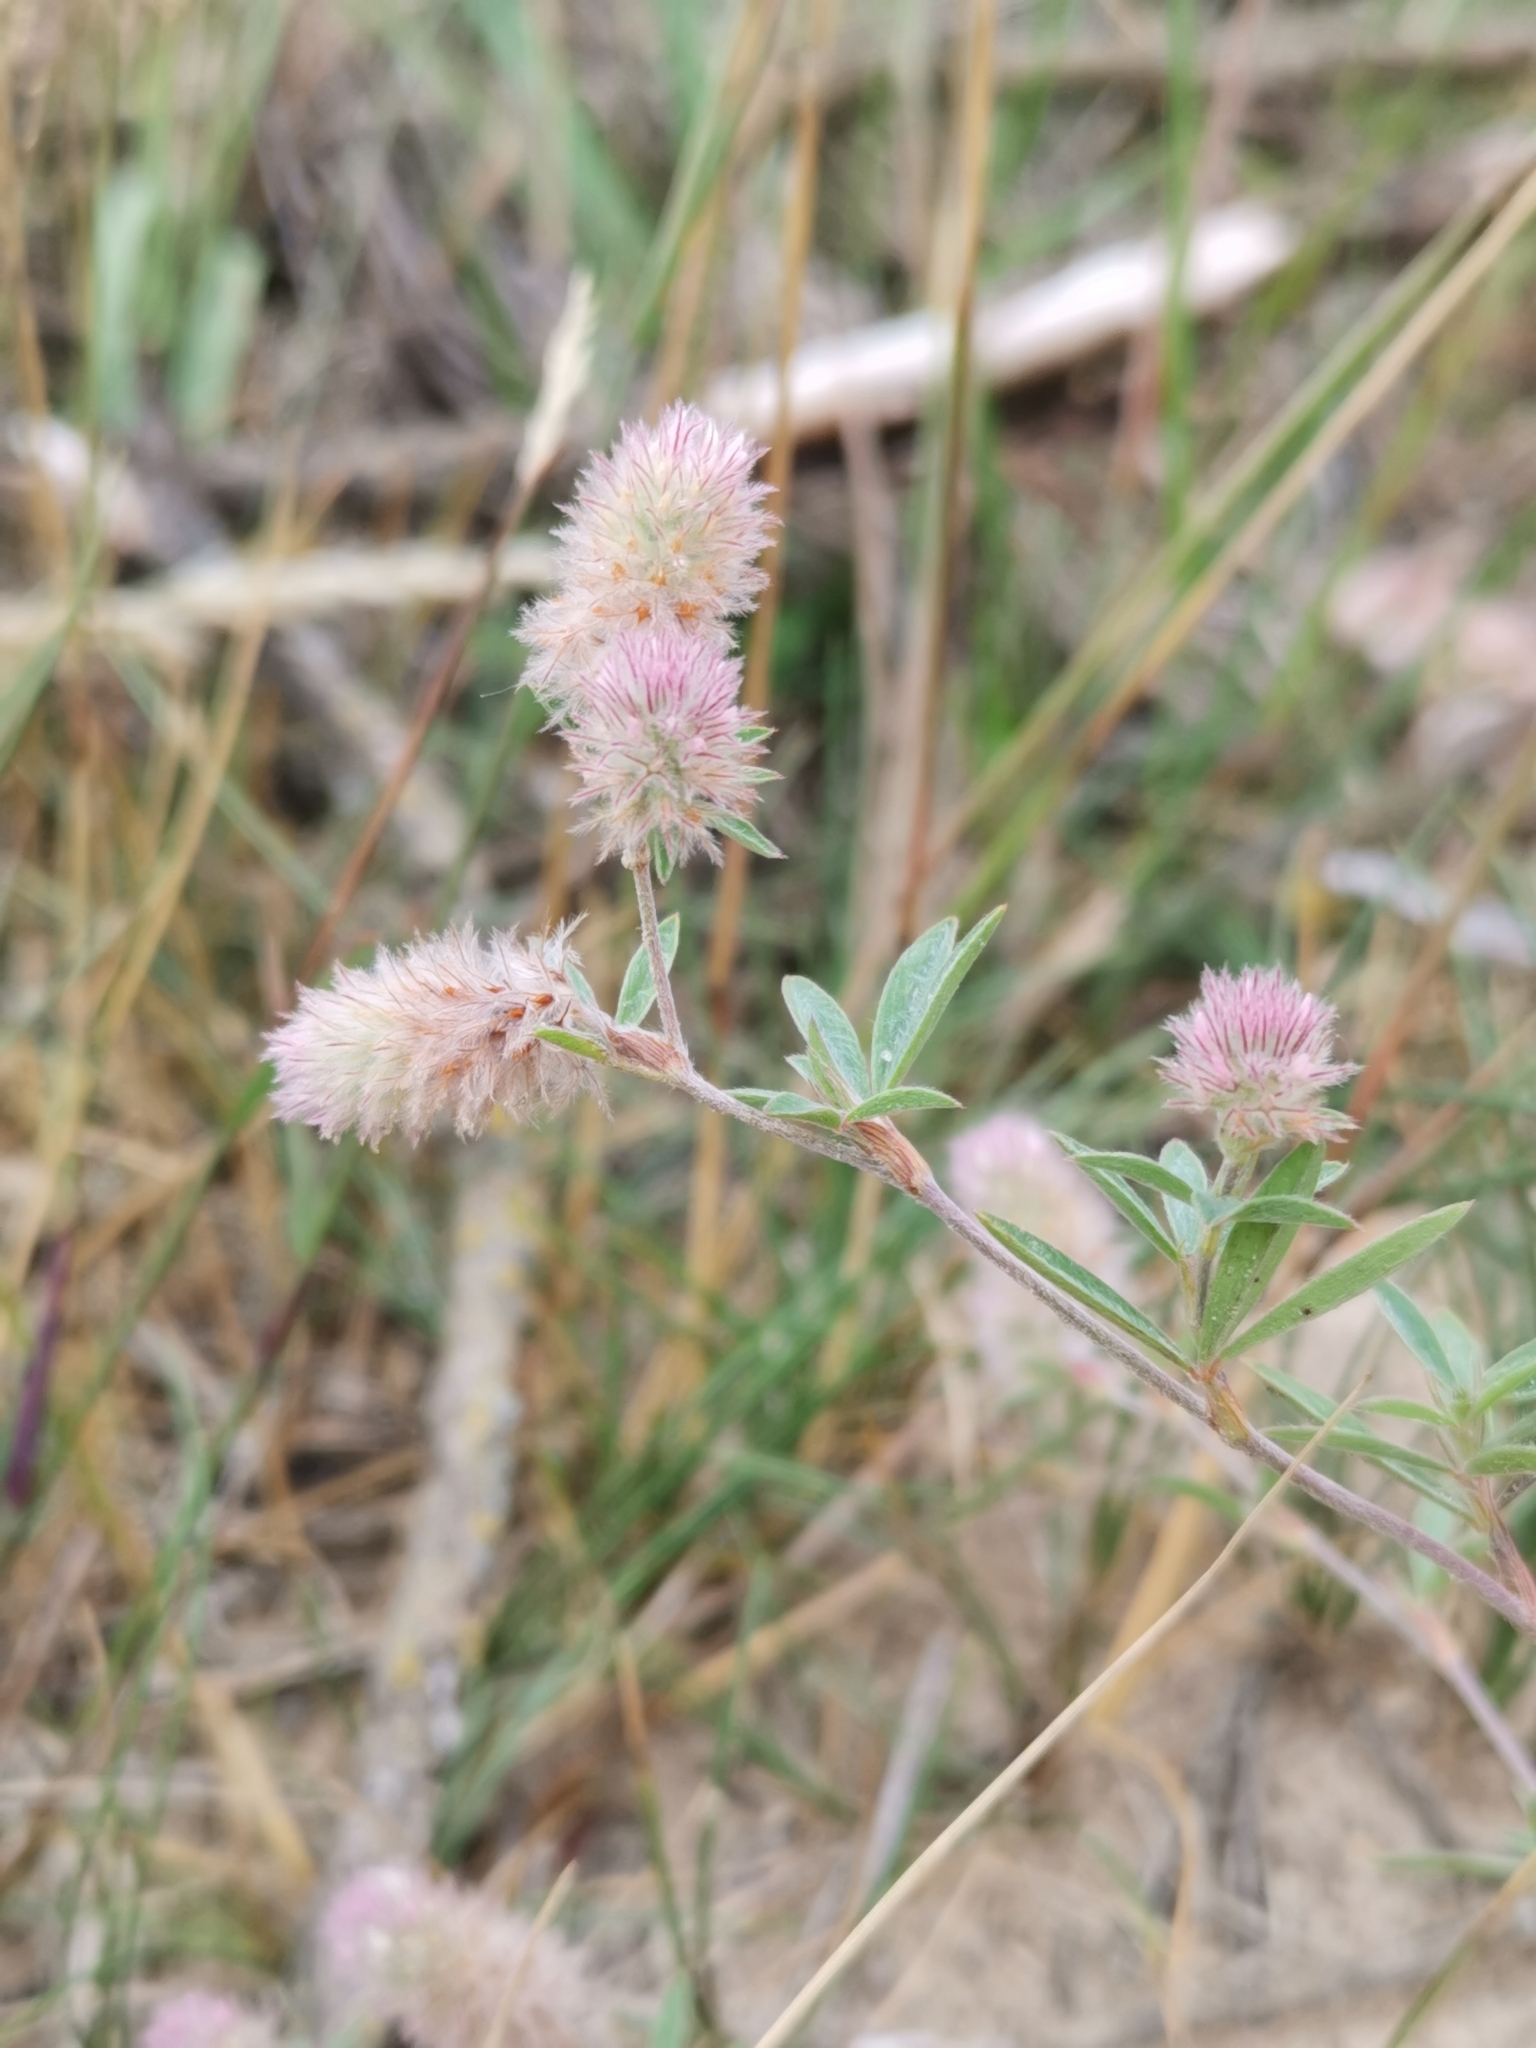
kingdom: Plantae
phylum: Tracheophyta
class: Magnoliopsida
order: Fabales
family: Fabaceae
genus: Trifolium
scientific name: Trifolium arvense
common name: Hare's-foot clover
